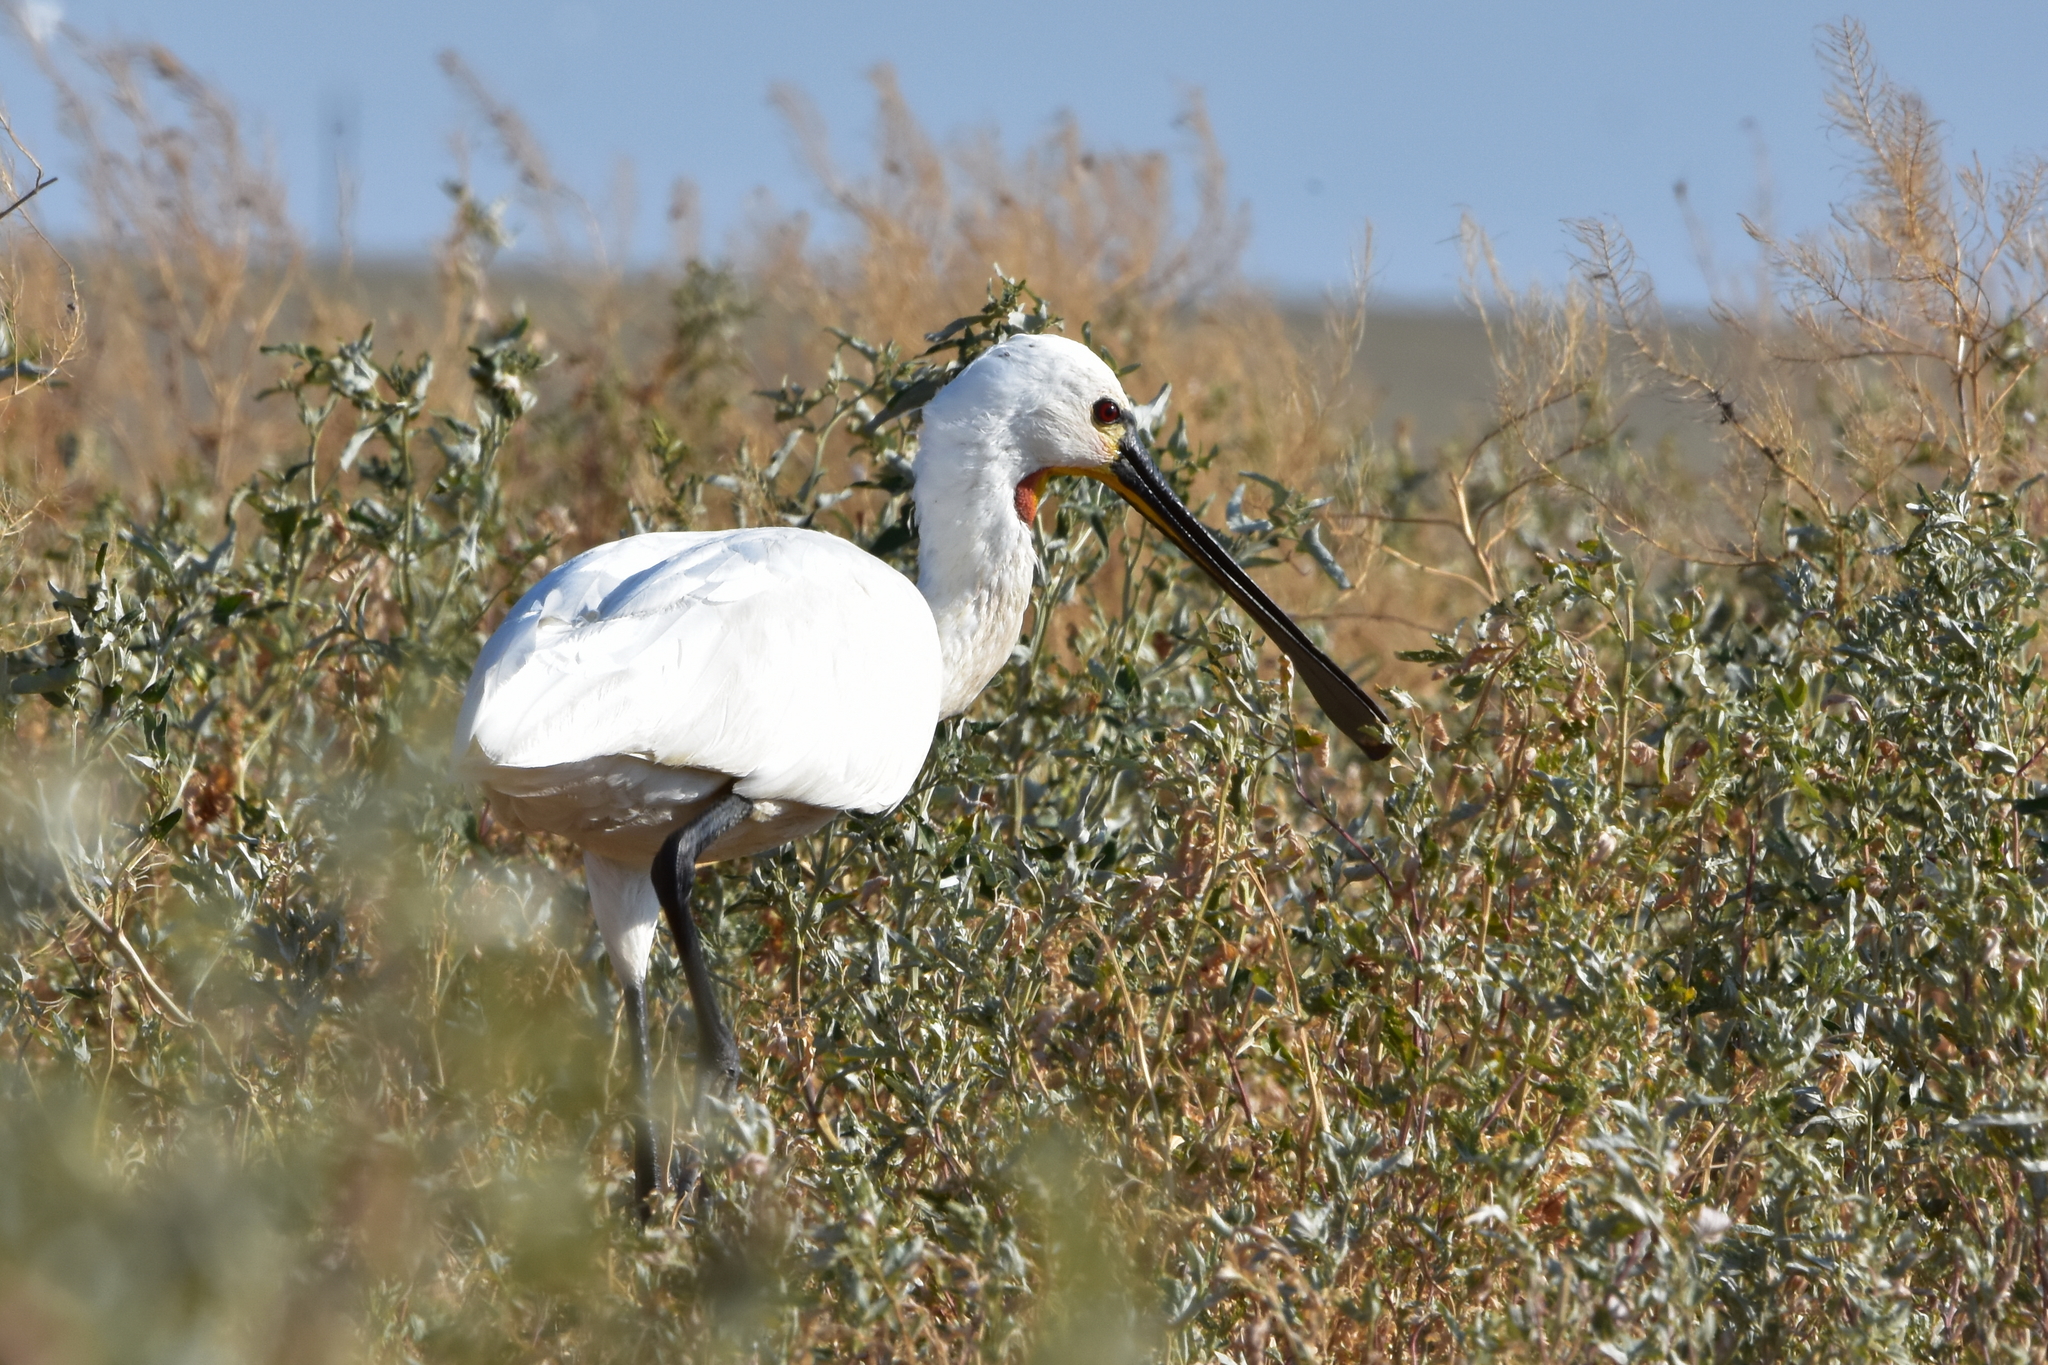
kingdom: Animalia
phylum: Chordata
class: Aves
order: Pelecaniformes
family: Threskiornithidae
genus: Platalea
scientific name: Platalea leucorodia
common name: Eurasian spoonbill
